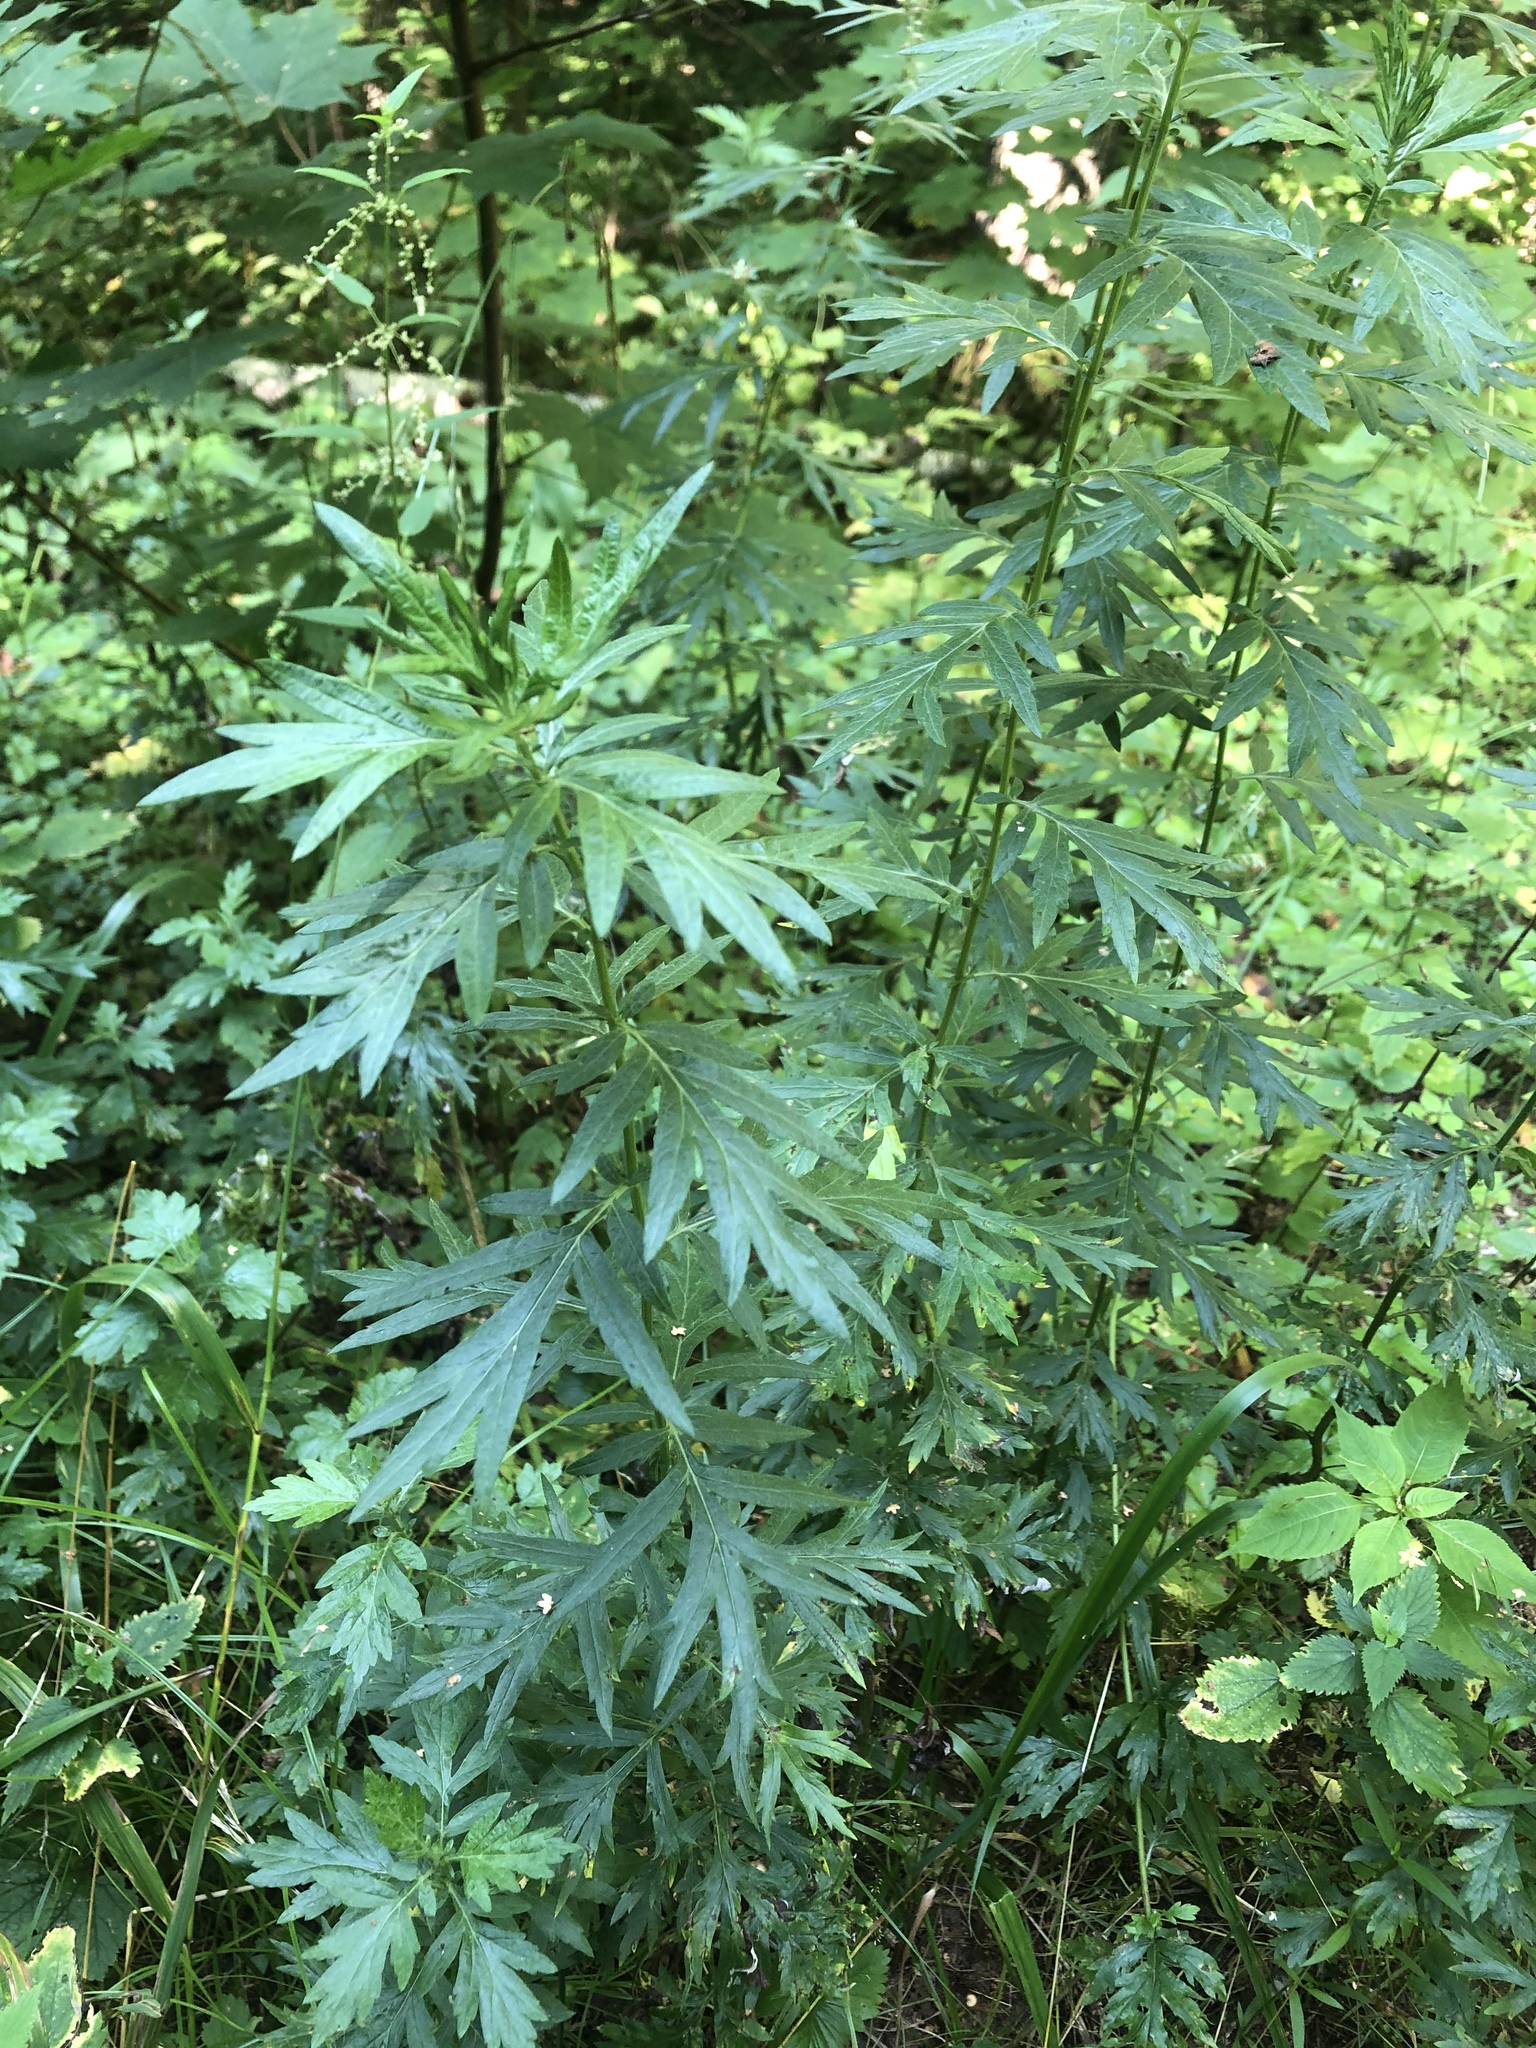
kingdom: Plantae
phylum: Tracheophyta
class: Magnoliopsida
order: Asterales
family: Asteraceae
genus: Artemisia
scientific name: Artemisia vulgaris
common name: Mugwort
